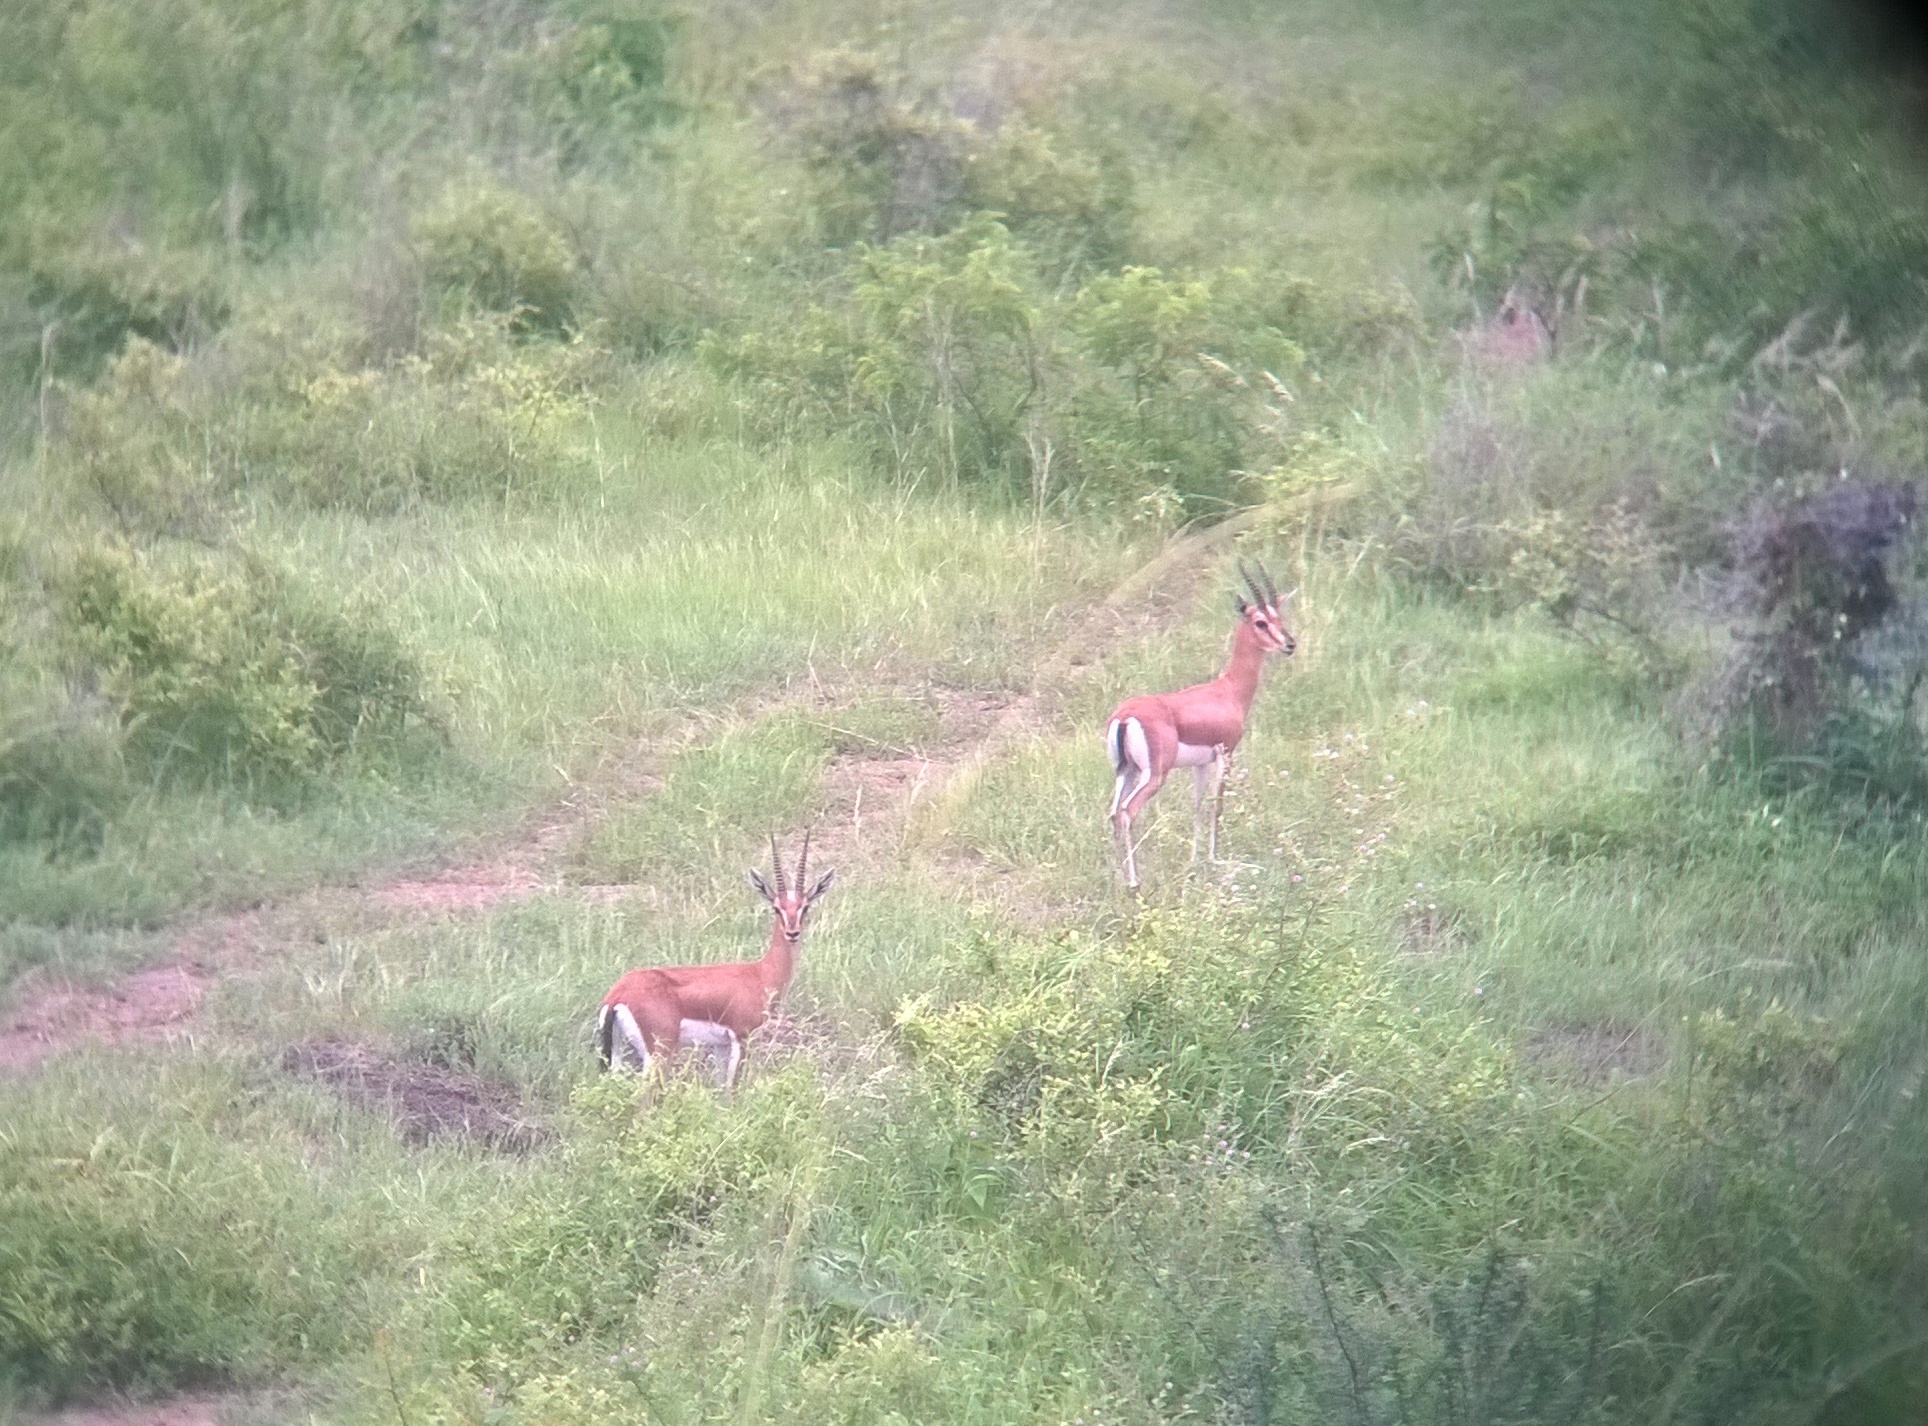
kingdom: Animalia
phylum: Chordata
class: Mammalia
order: Artiodactyla
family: Bovidae
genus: Gazella
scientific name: Gazella bennettii
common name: Indian gazelle
